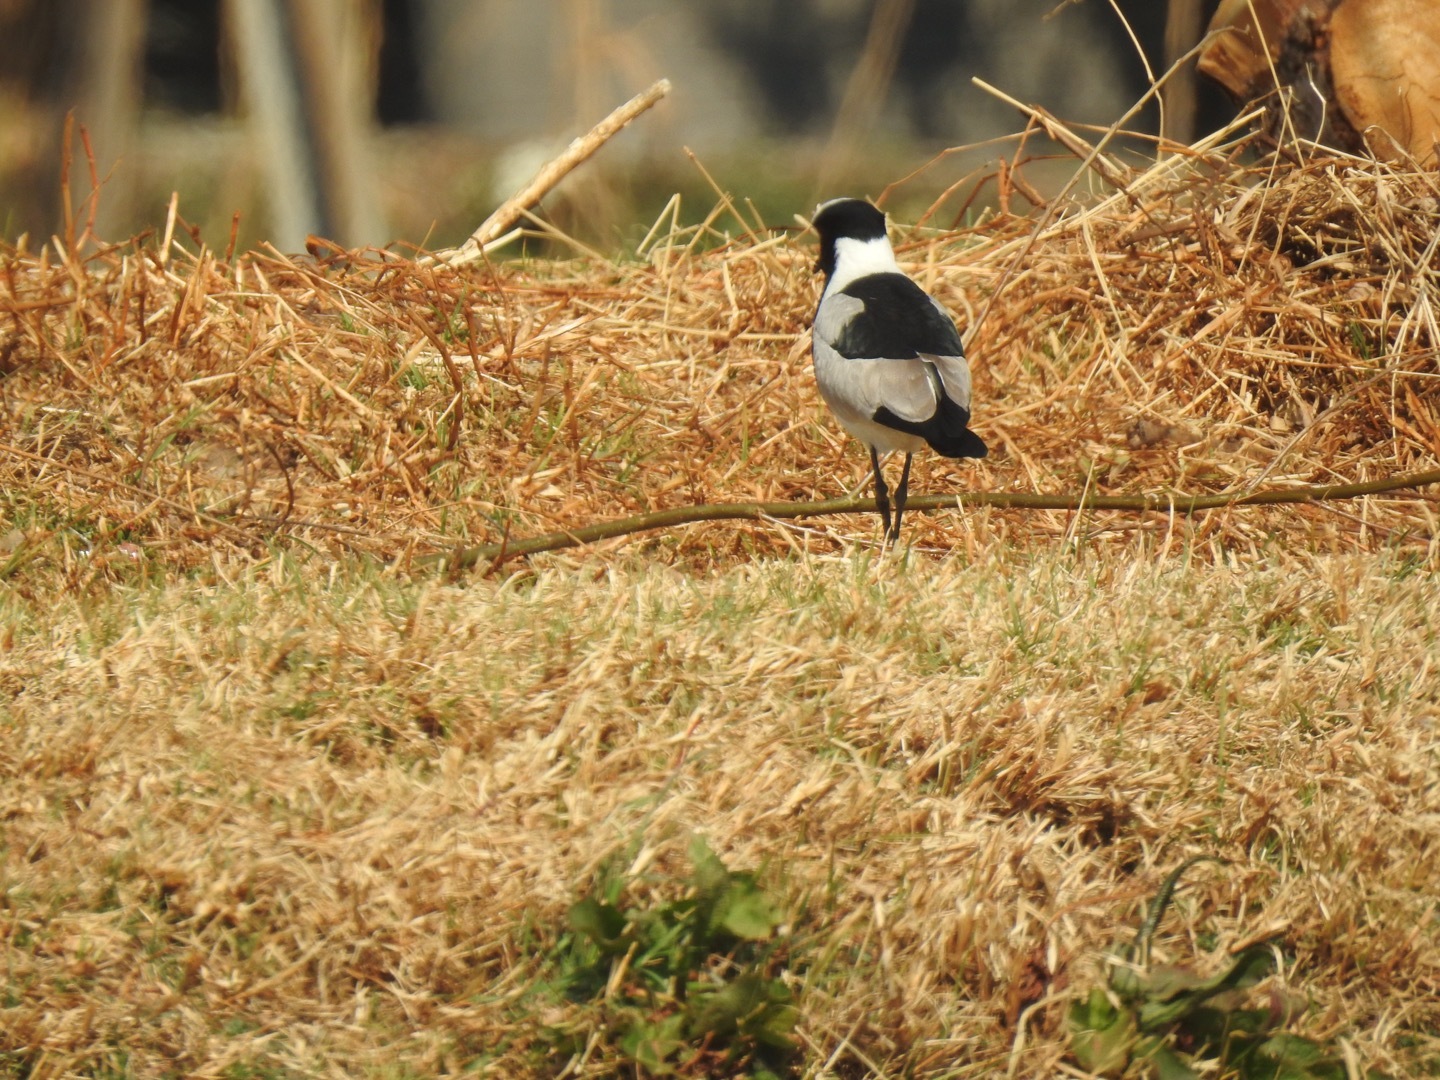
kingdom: Animalia
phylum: Chordata
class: Aves
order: Charadriiformes
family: Charadriidae
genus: Vanellus
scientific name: Vanellus armatus
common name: Blacksmith lapwing
